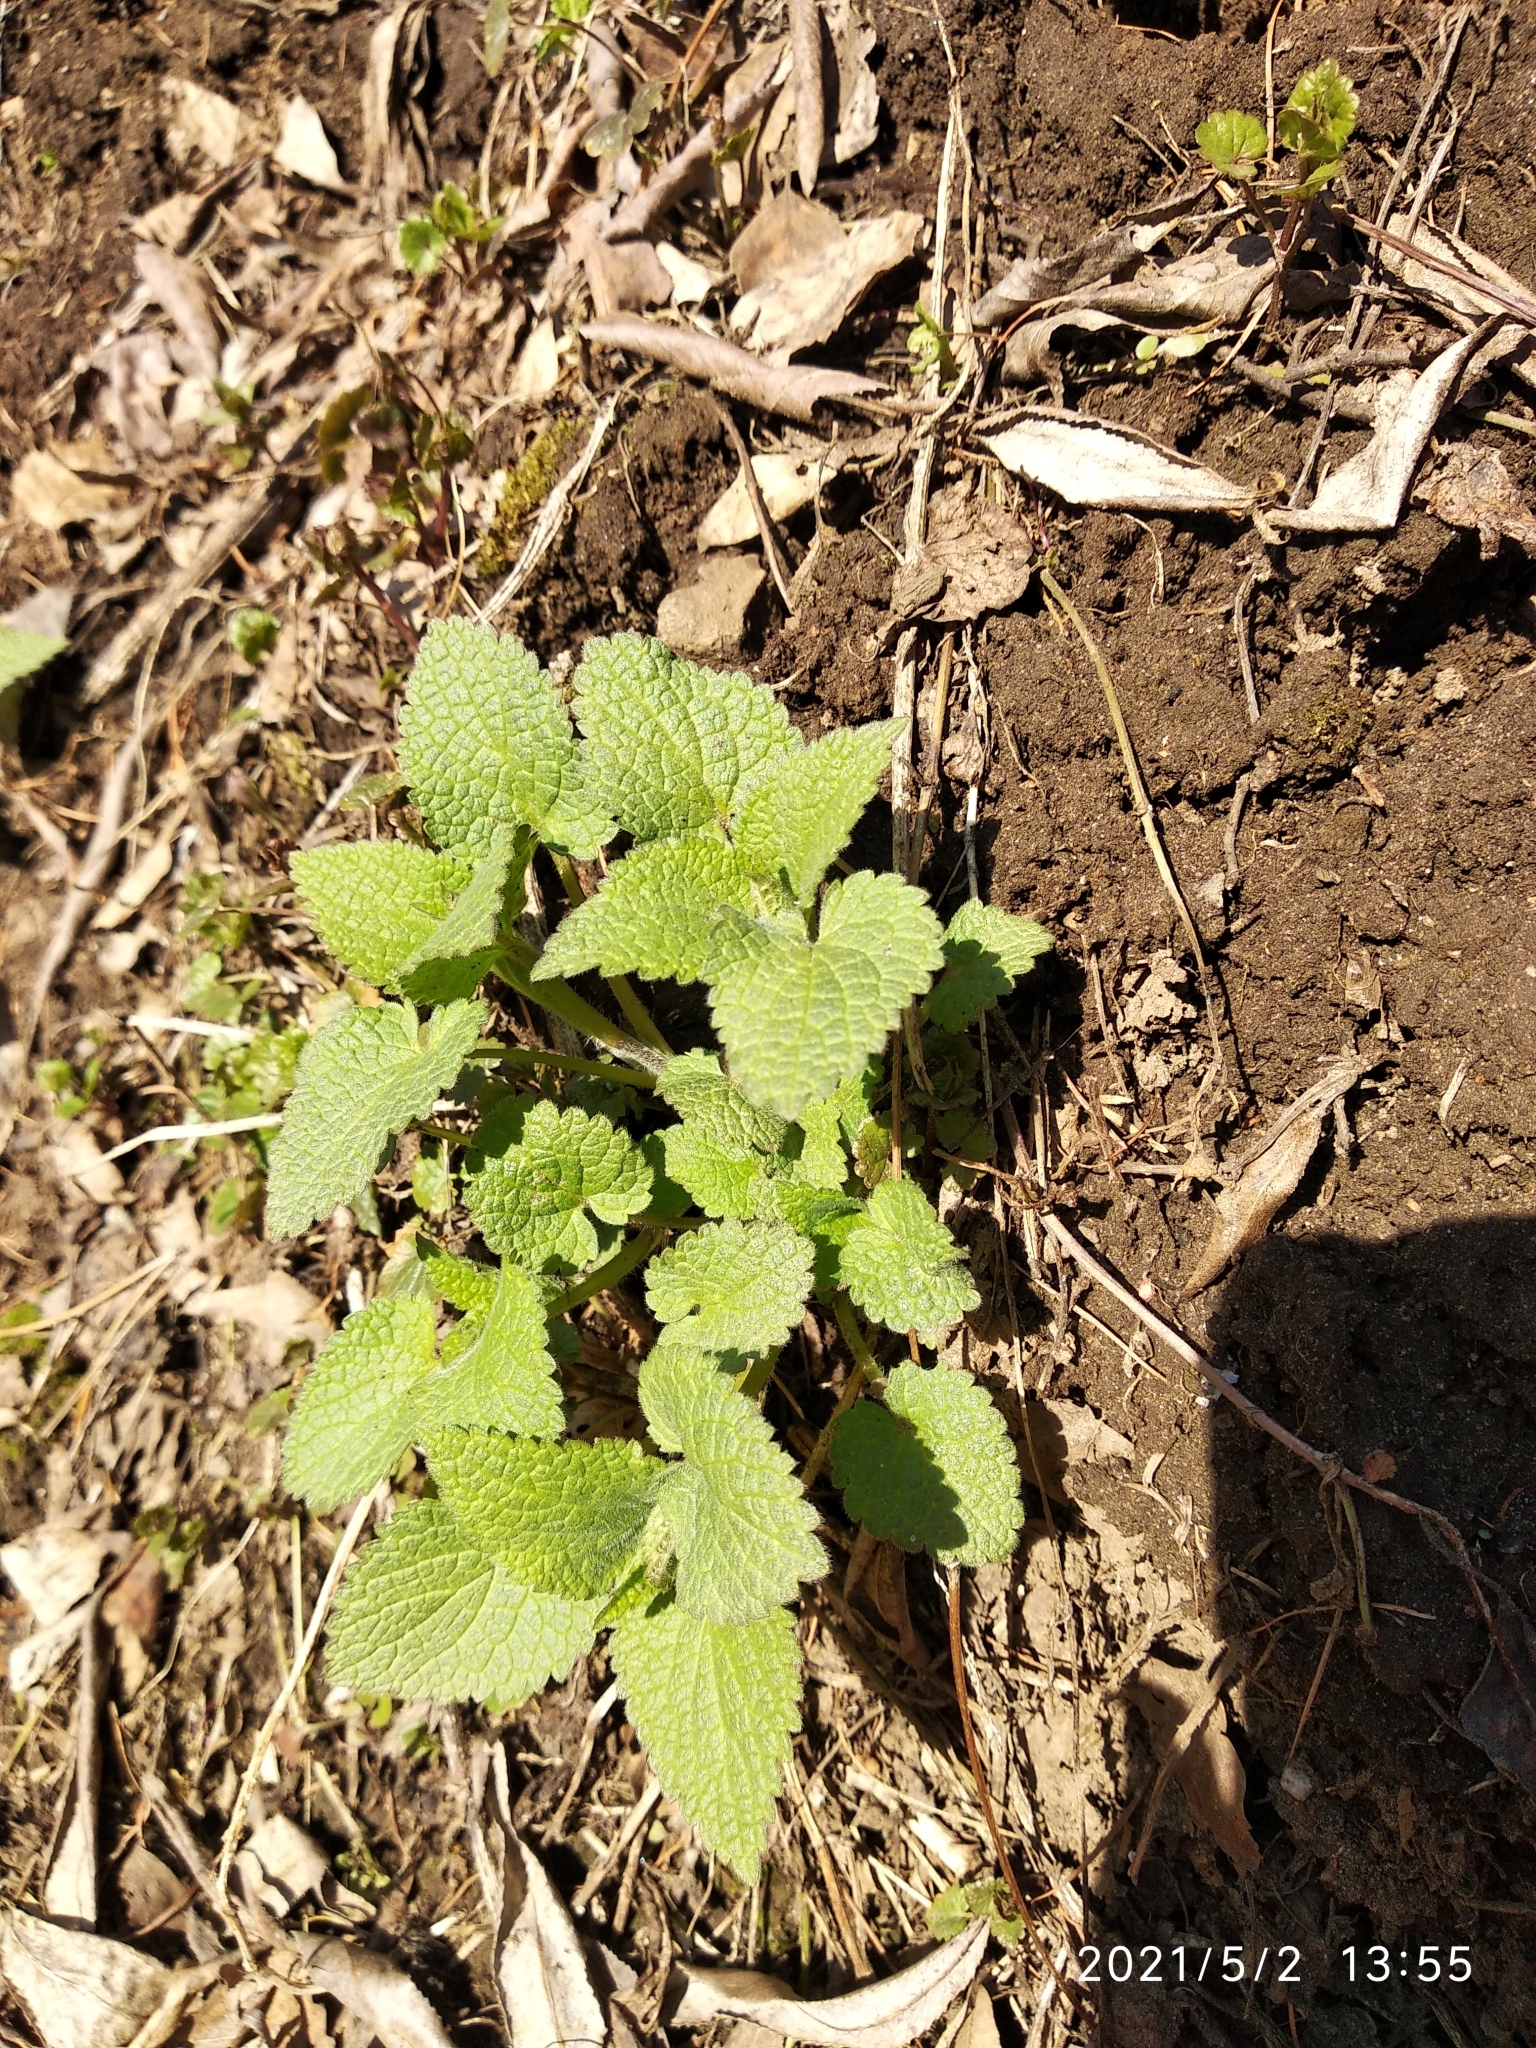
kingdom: Plantae
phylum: Tracheophyta
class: Magnoliopsida
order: Lamiales
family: Lamiaceae
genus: Lamium
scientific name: Lamium album
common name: White dead-nettle
